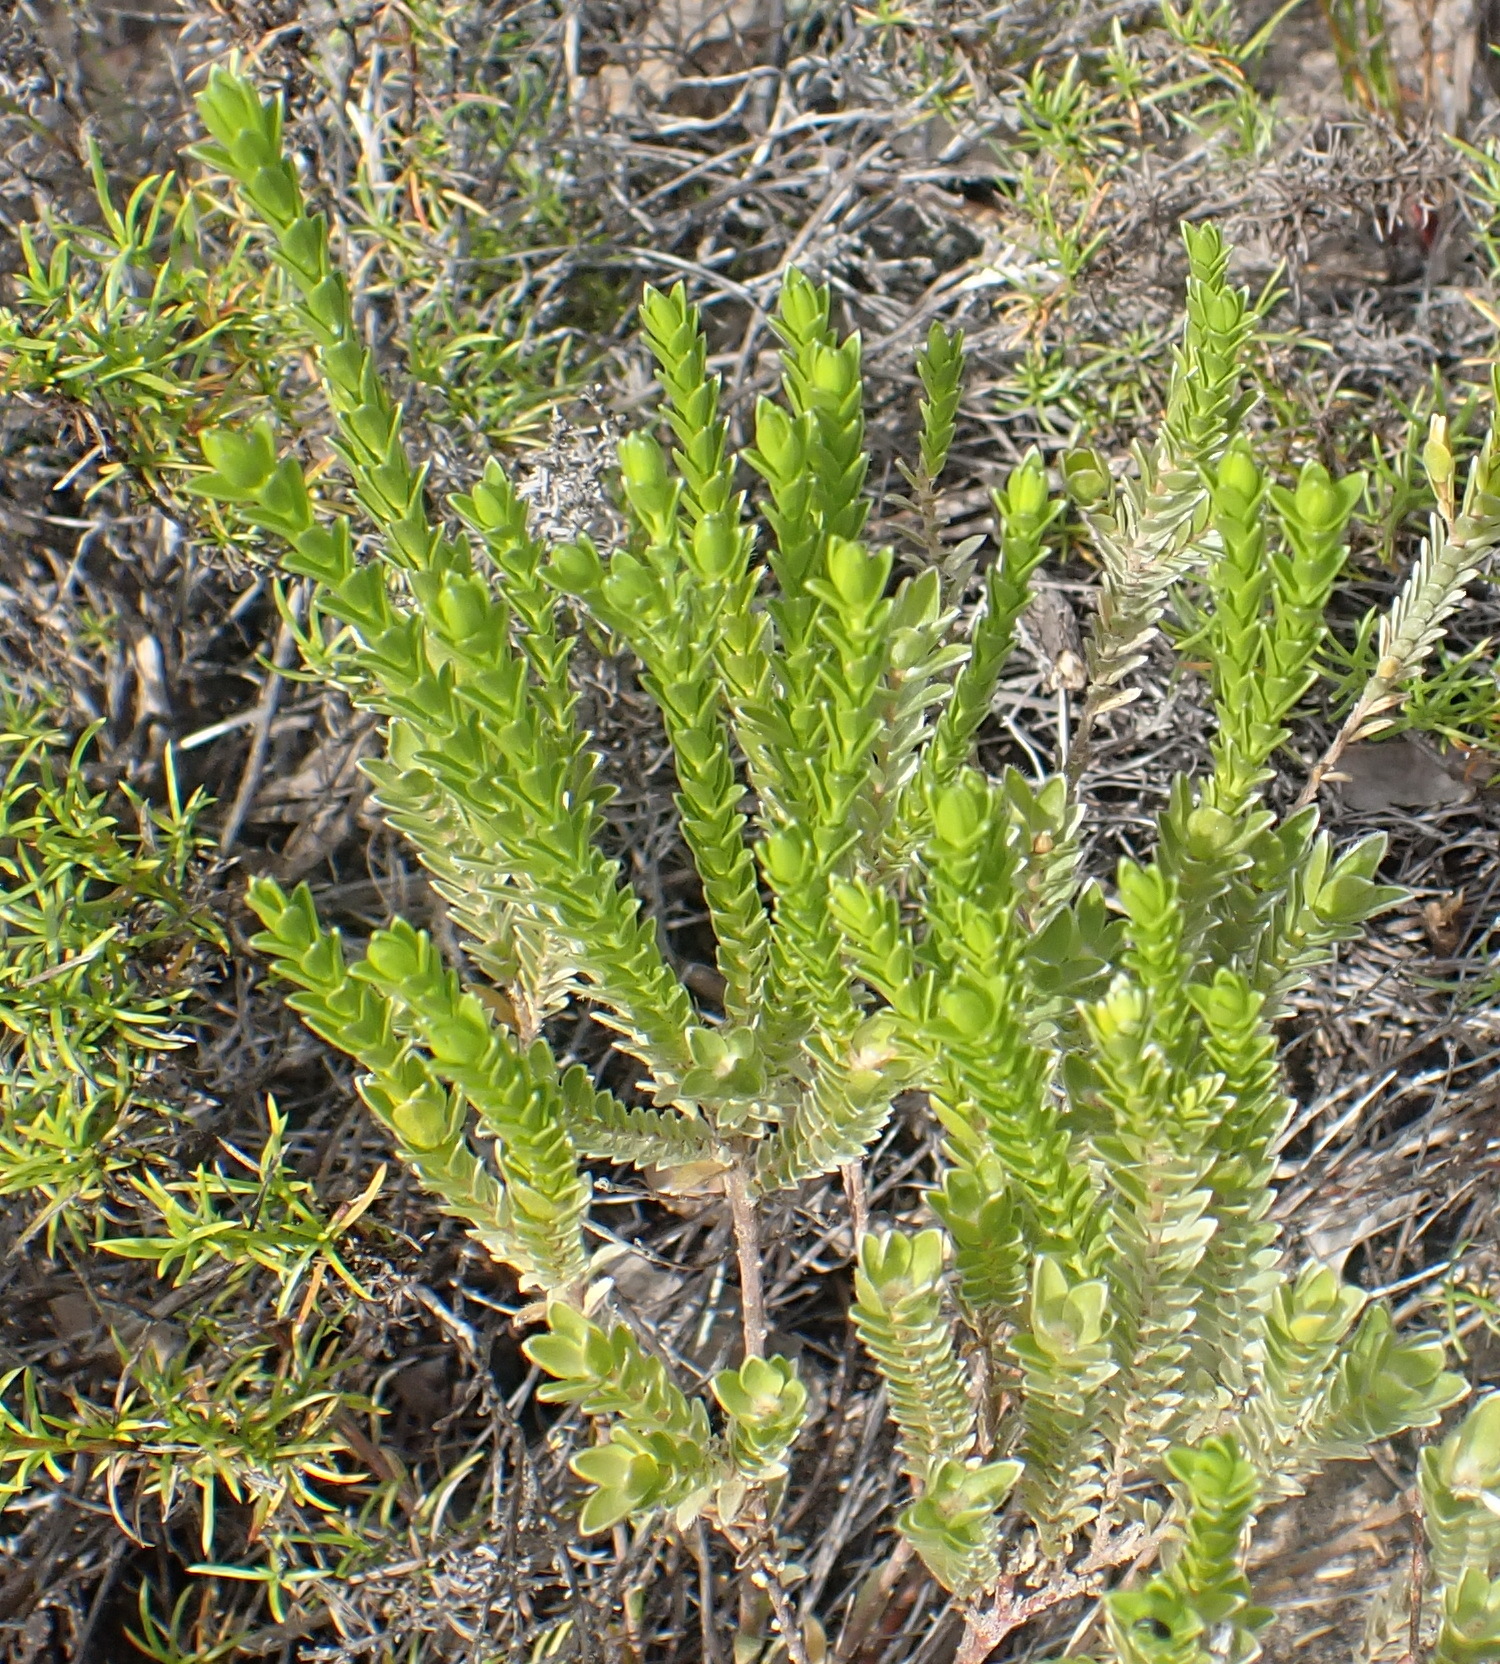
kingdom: Plantae
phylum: Tracheophyta
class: Magnoliopsida
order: Malvales
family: Thymelaeaceae
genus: Gnidia
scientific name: Gnidia chrysophylla
